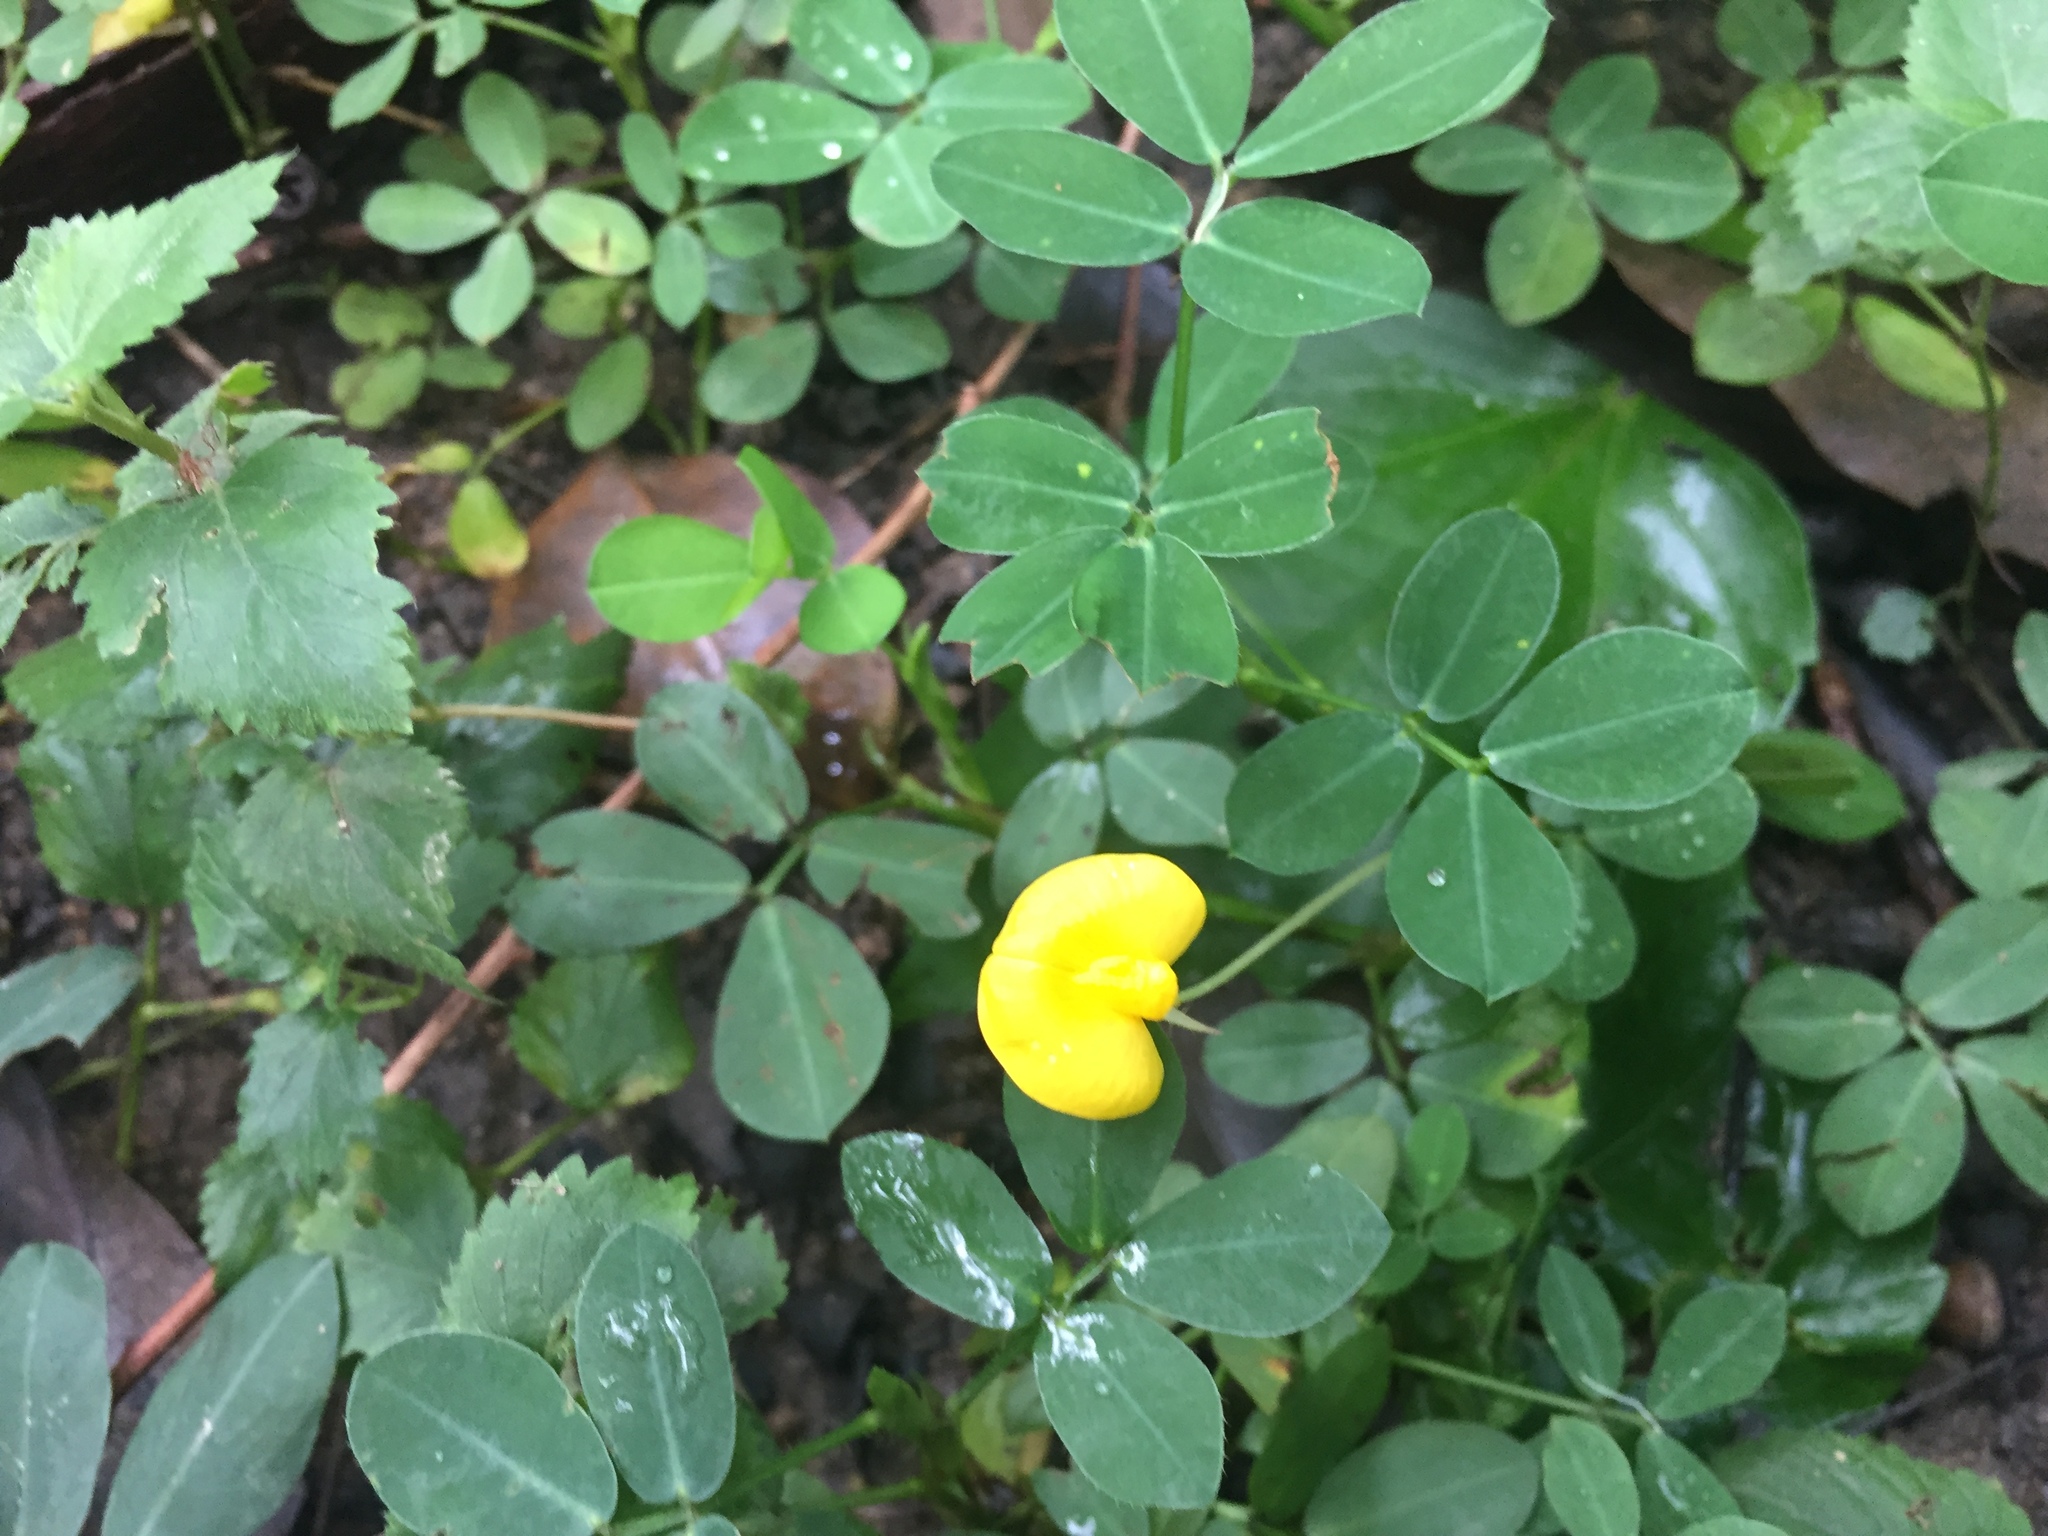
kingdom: Plantae
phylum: Tracheophyta
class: Magnoliopsida
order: Fabales
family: Fabaceae
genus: Arachis
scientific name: Arachis duranensis
